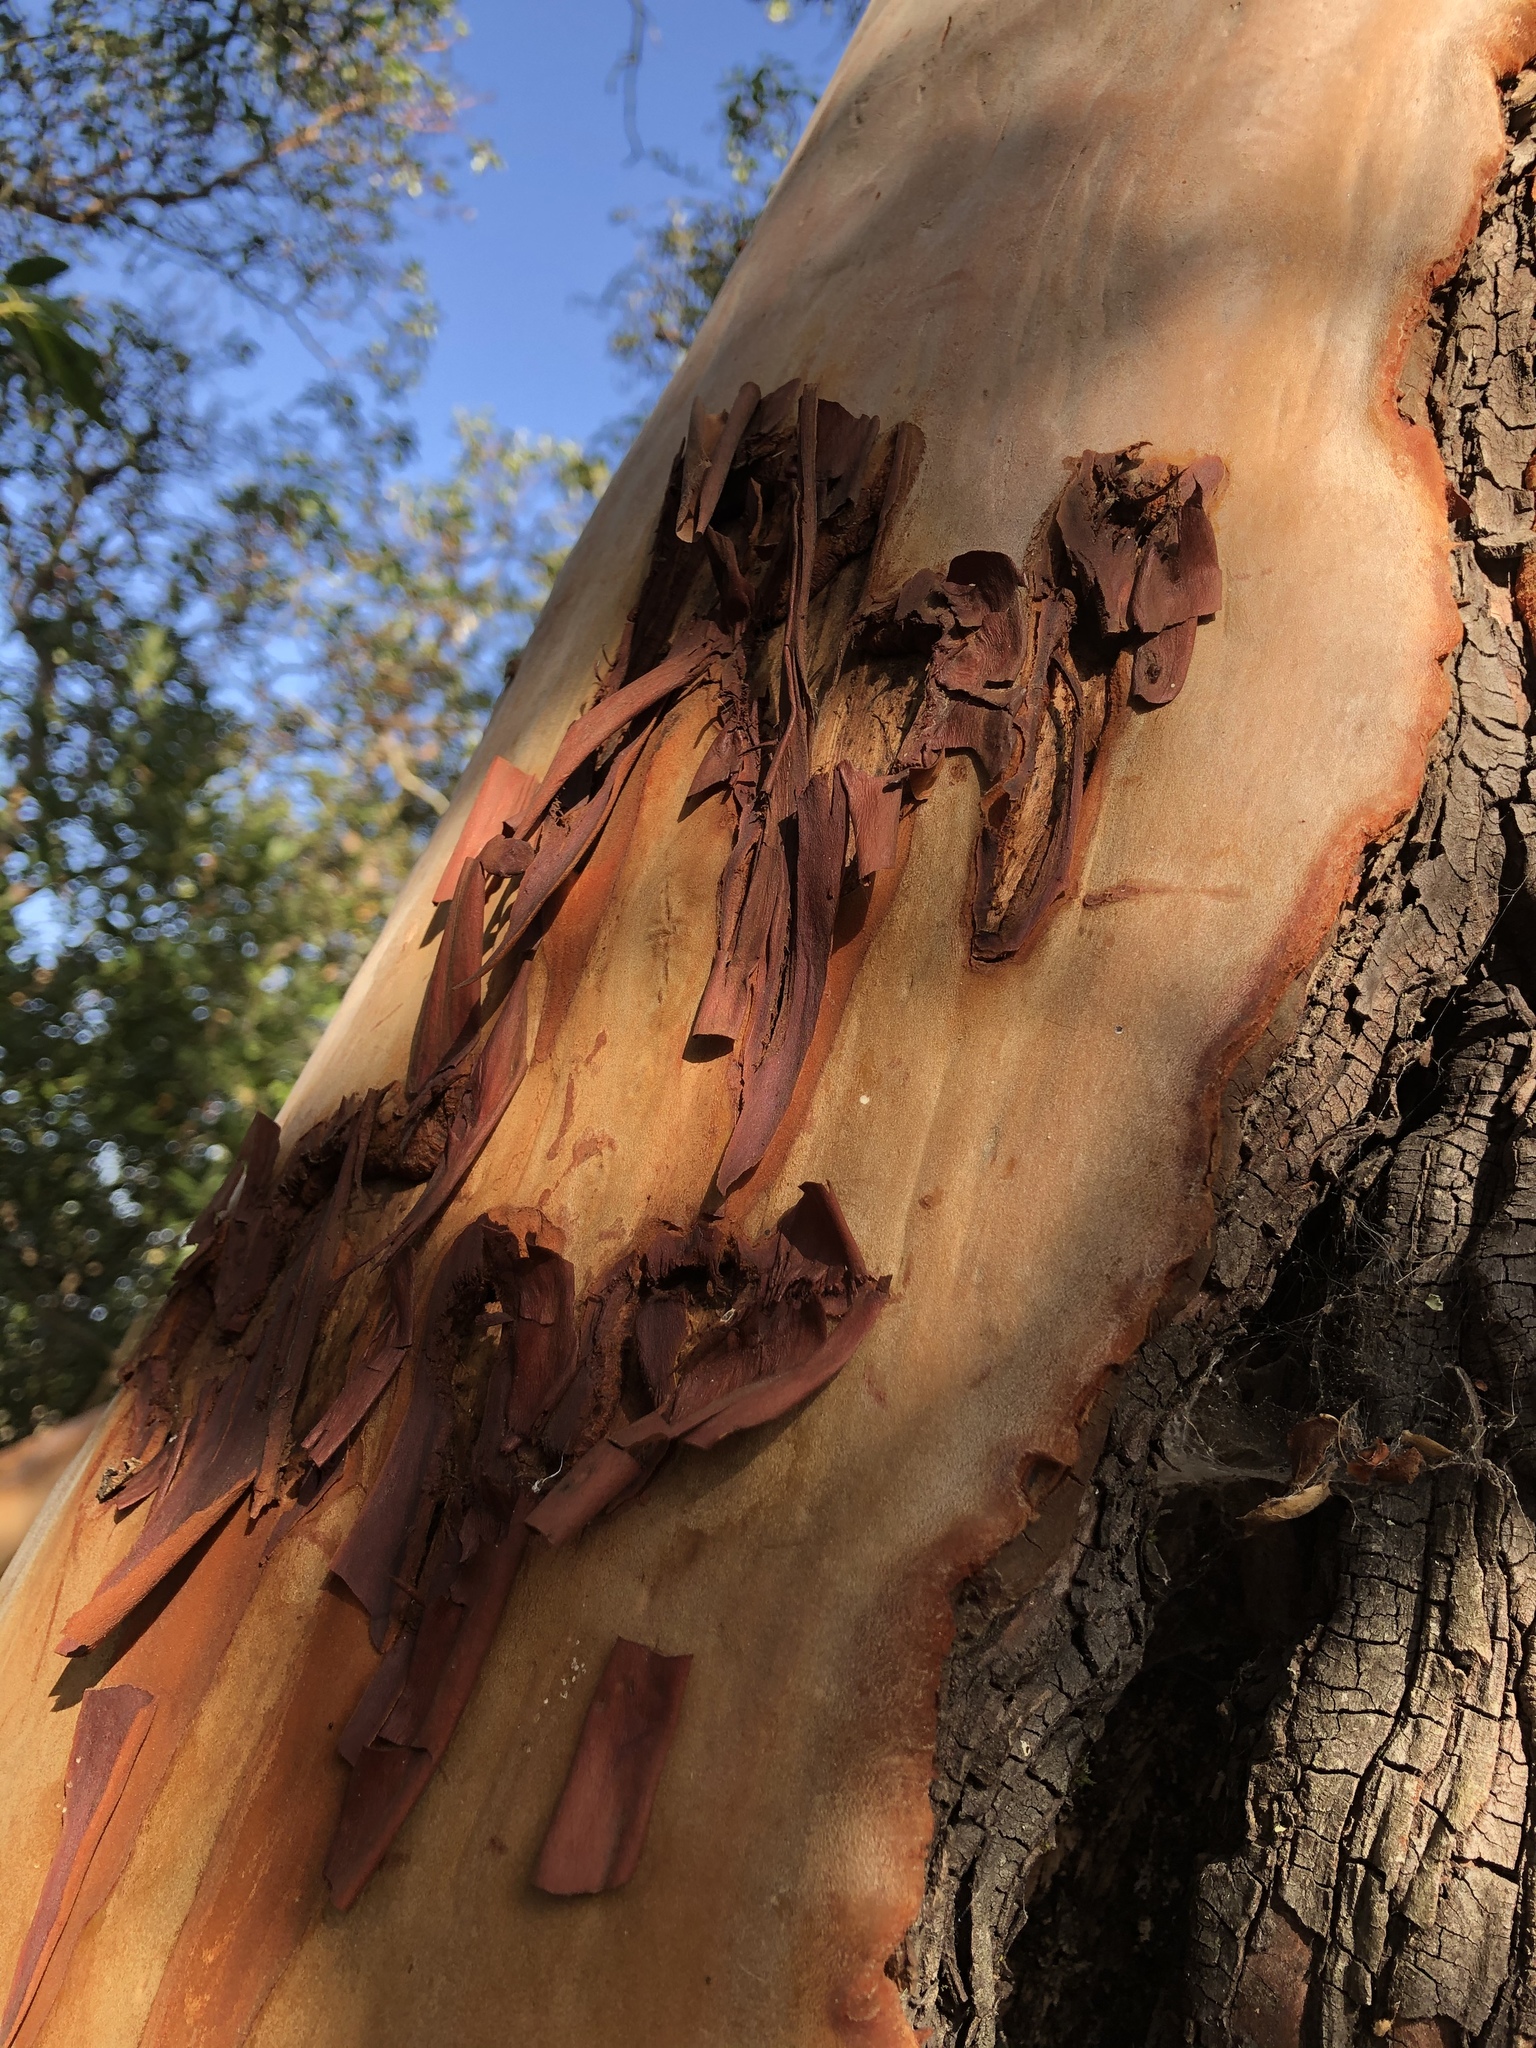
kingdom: Plantae
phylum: Tracheophyta
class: Magnoliopsida
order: Ericales
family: Ericaceae
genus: Arbutus
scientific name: Arbutus menziesii
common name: Pacific madrone
